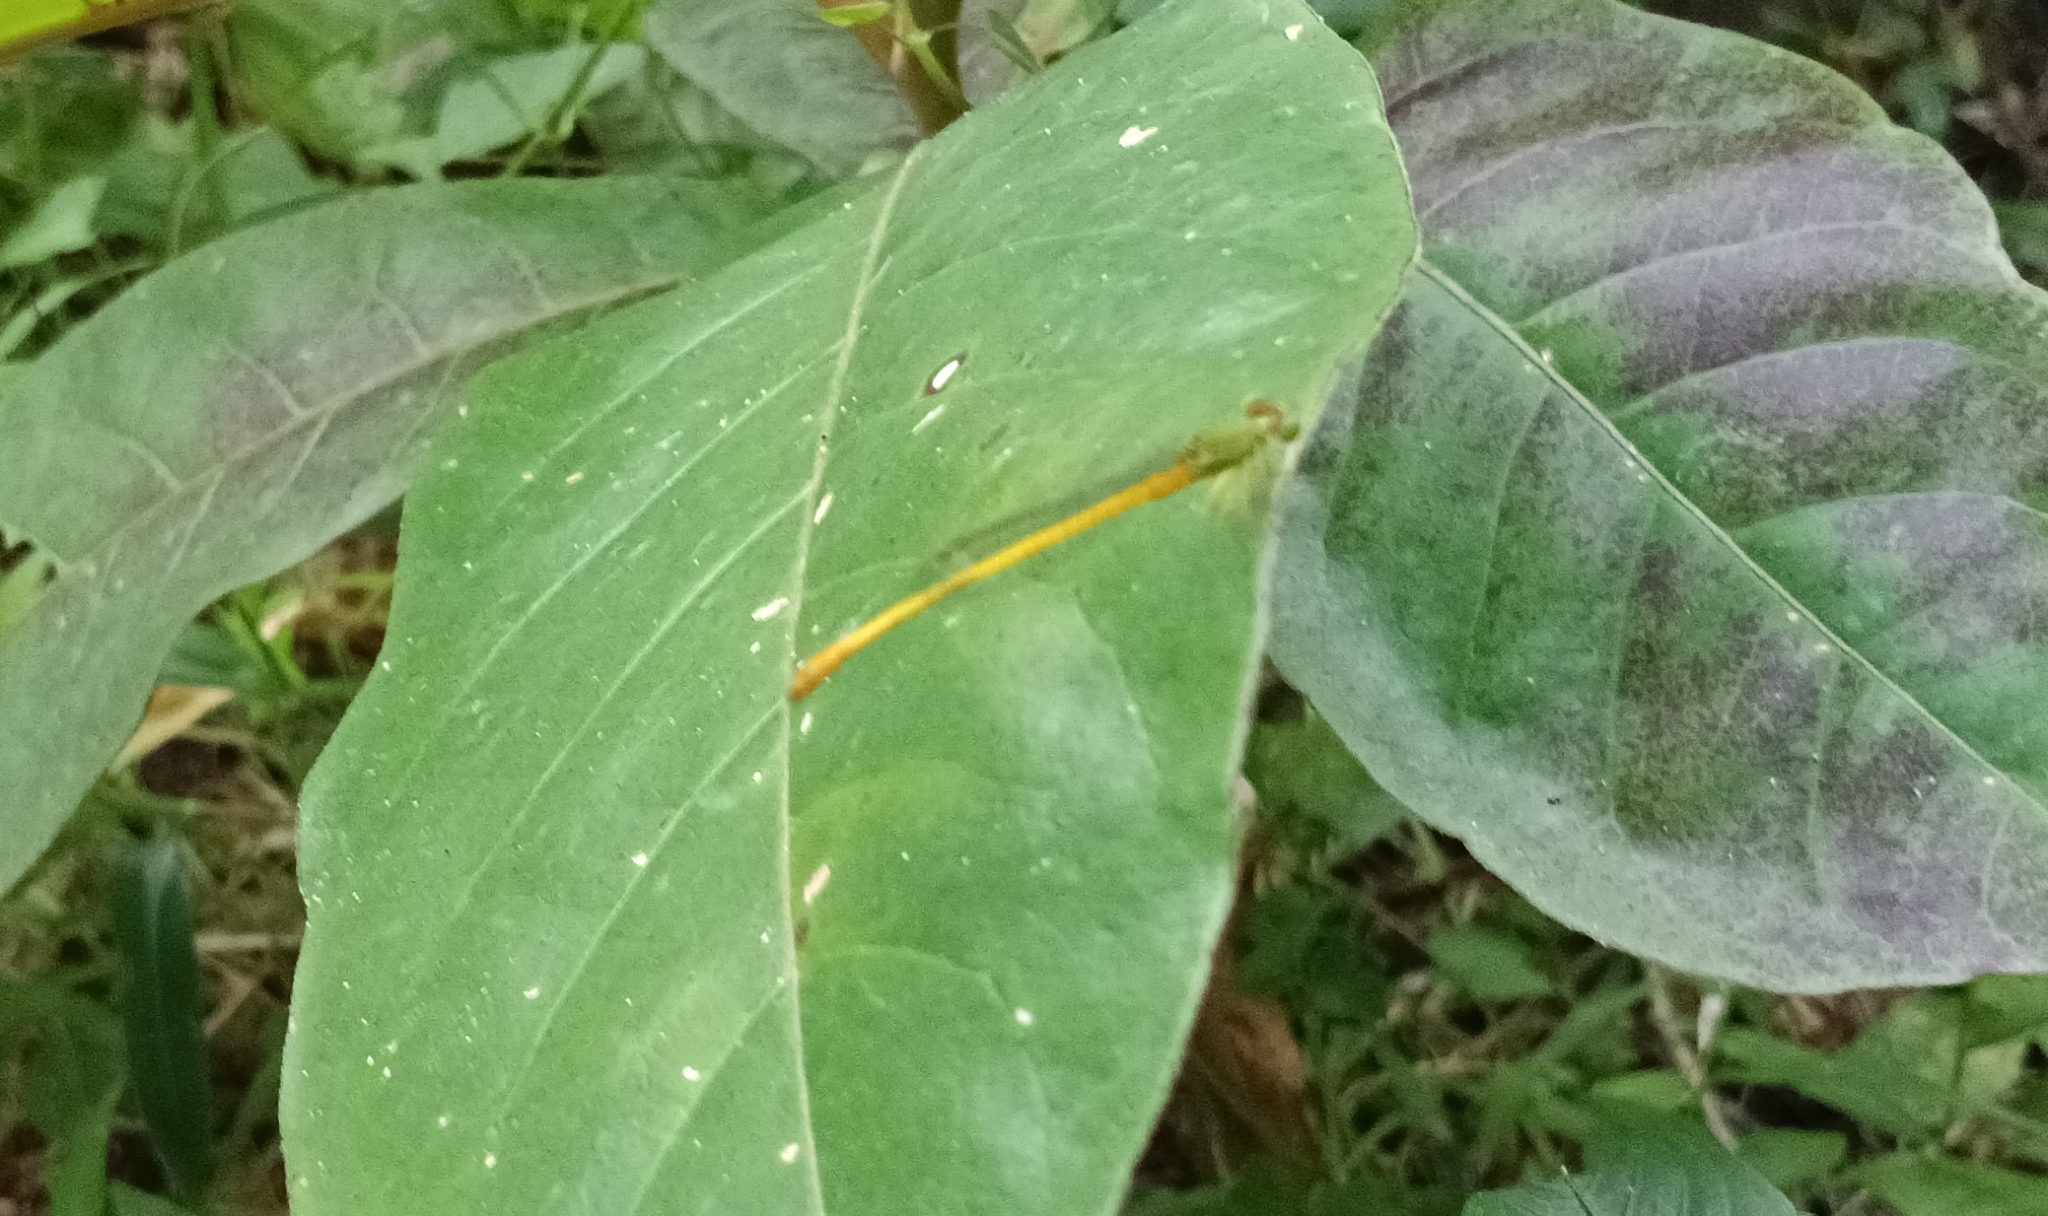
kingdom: Animalia
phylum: Arthropoda
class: Insecta
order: Odonata
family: Coenagrionidae
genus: Ceriagrion
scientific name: Ceriagrion coromandelianum
